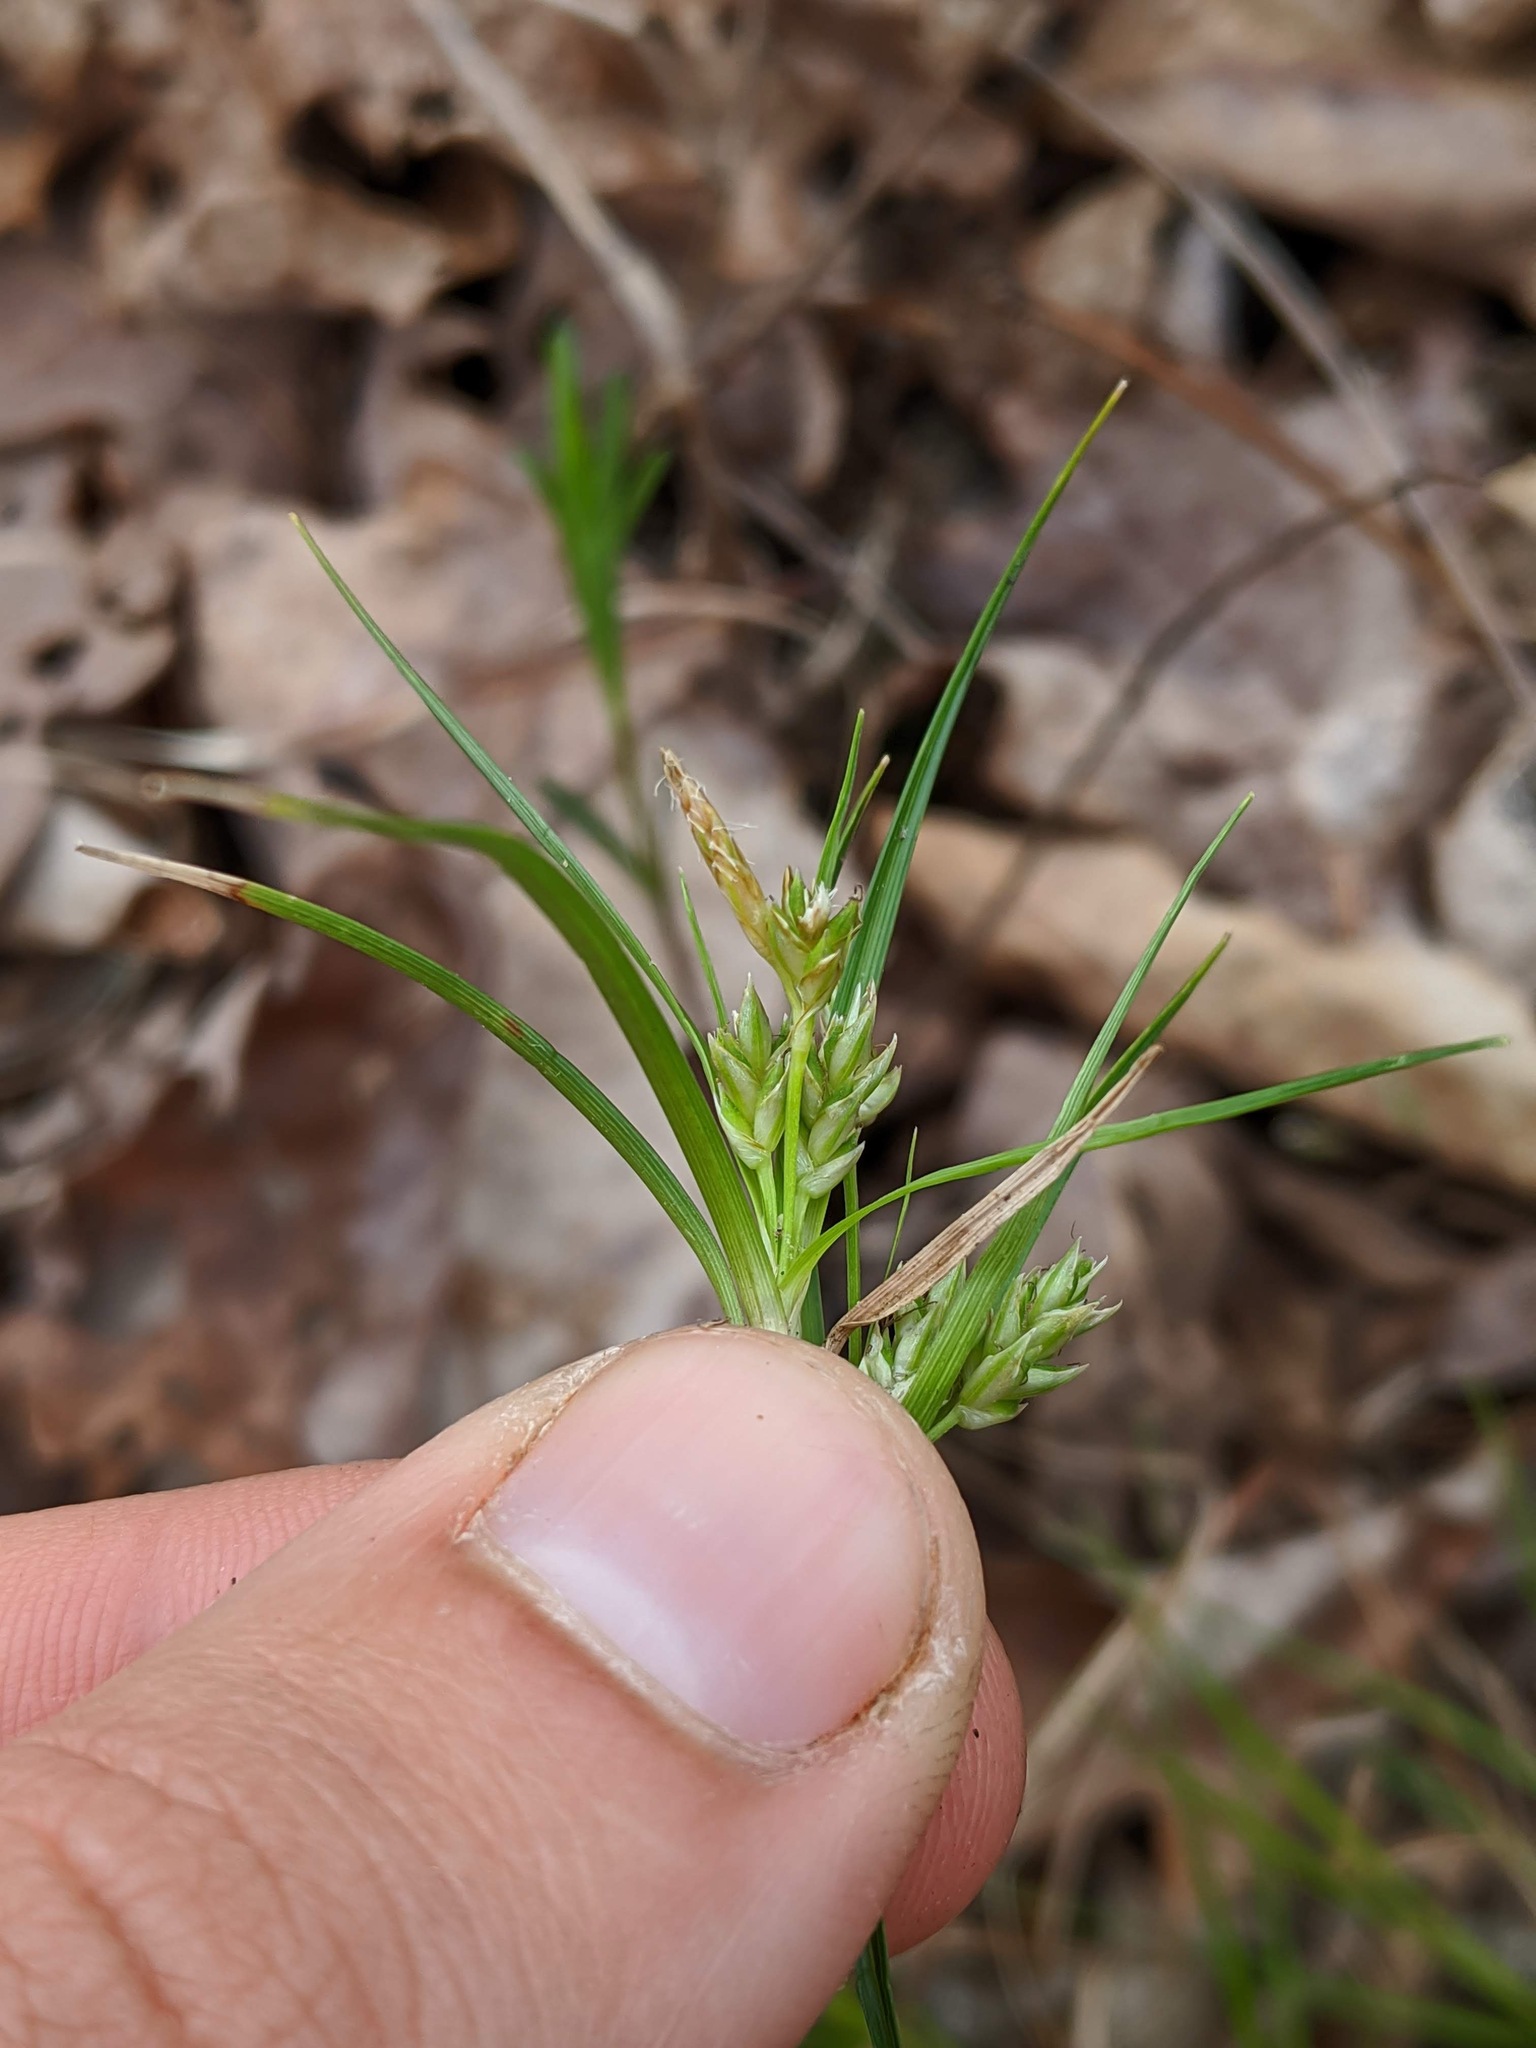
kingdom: Plantae
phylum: Tracheophyta
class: Liliopsida
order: Poales
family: Cyperaceae
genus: Carex
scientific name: Carex umbellata
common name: Early oak sedge
